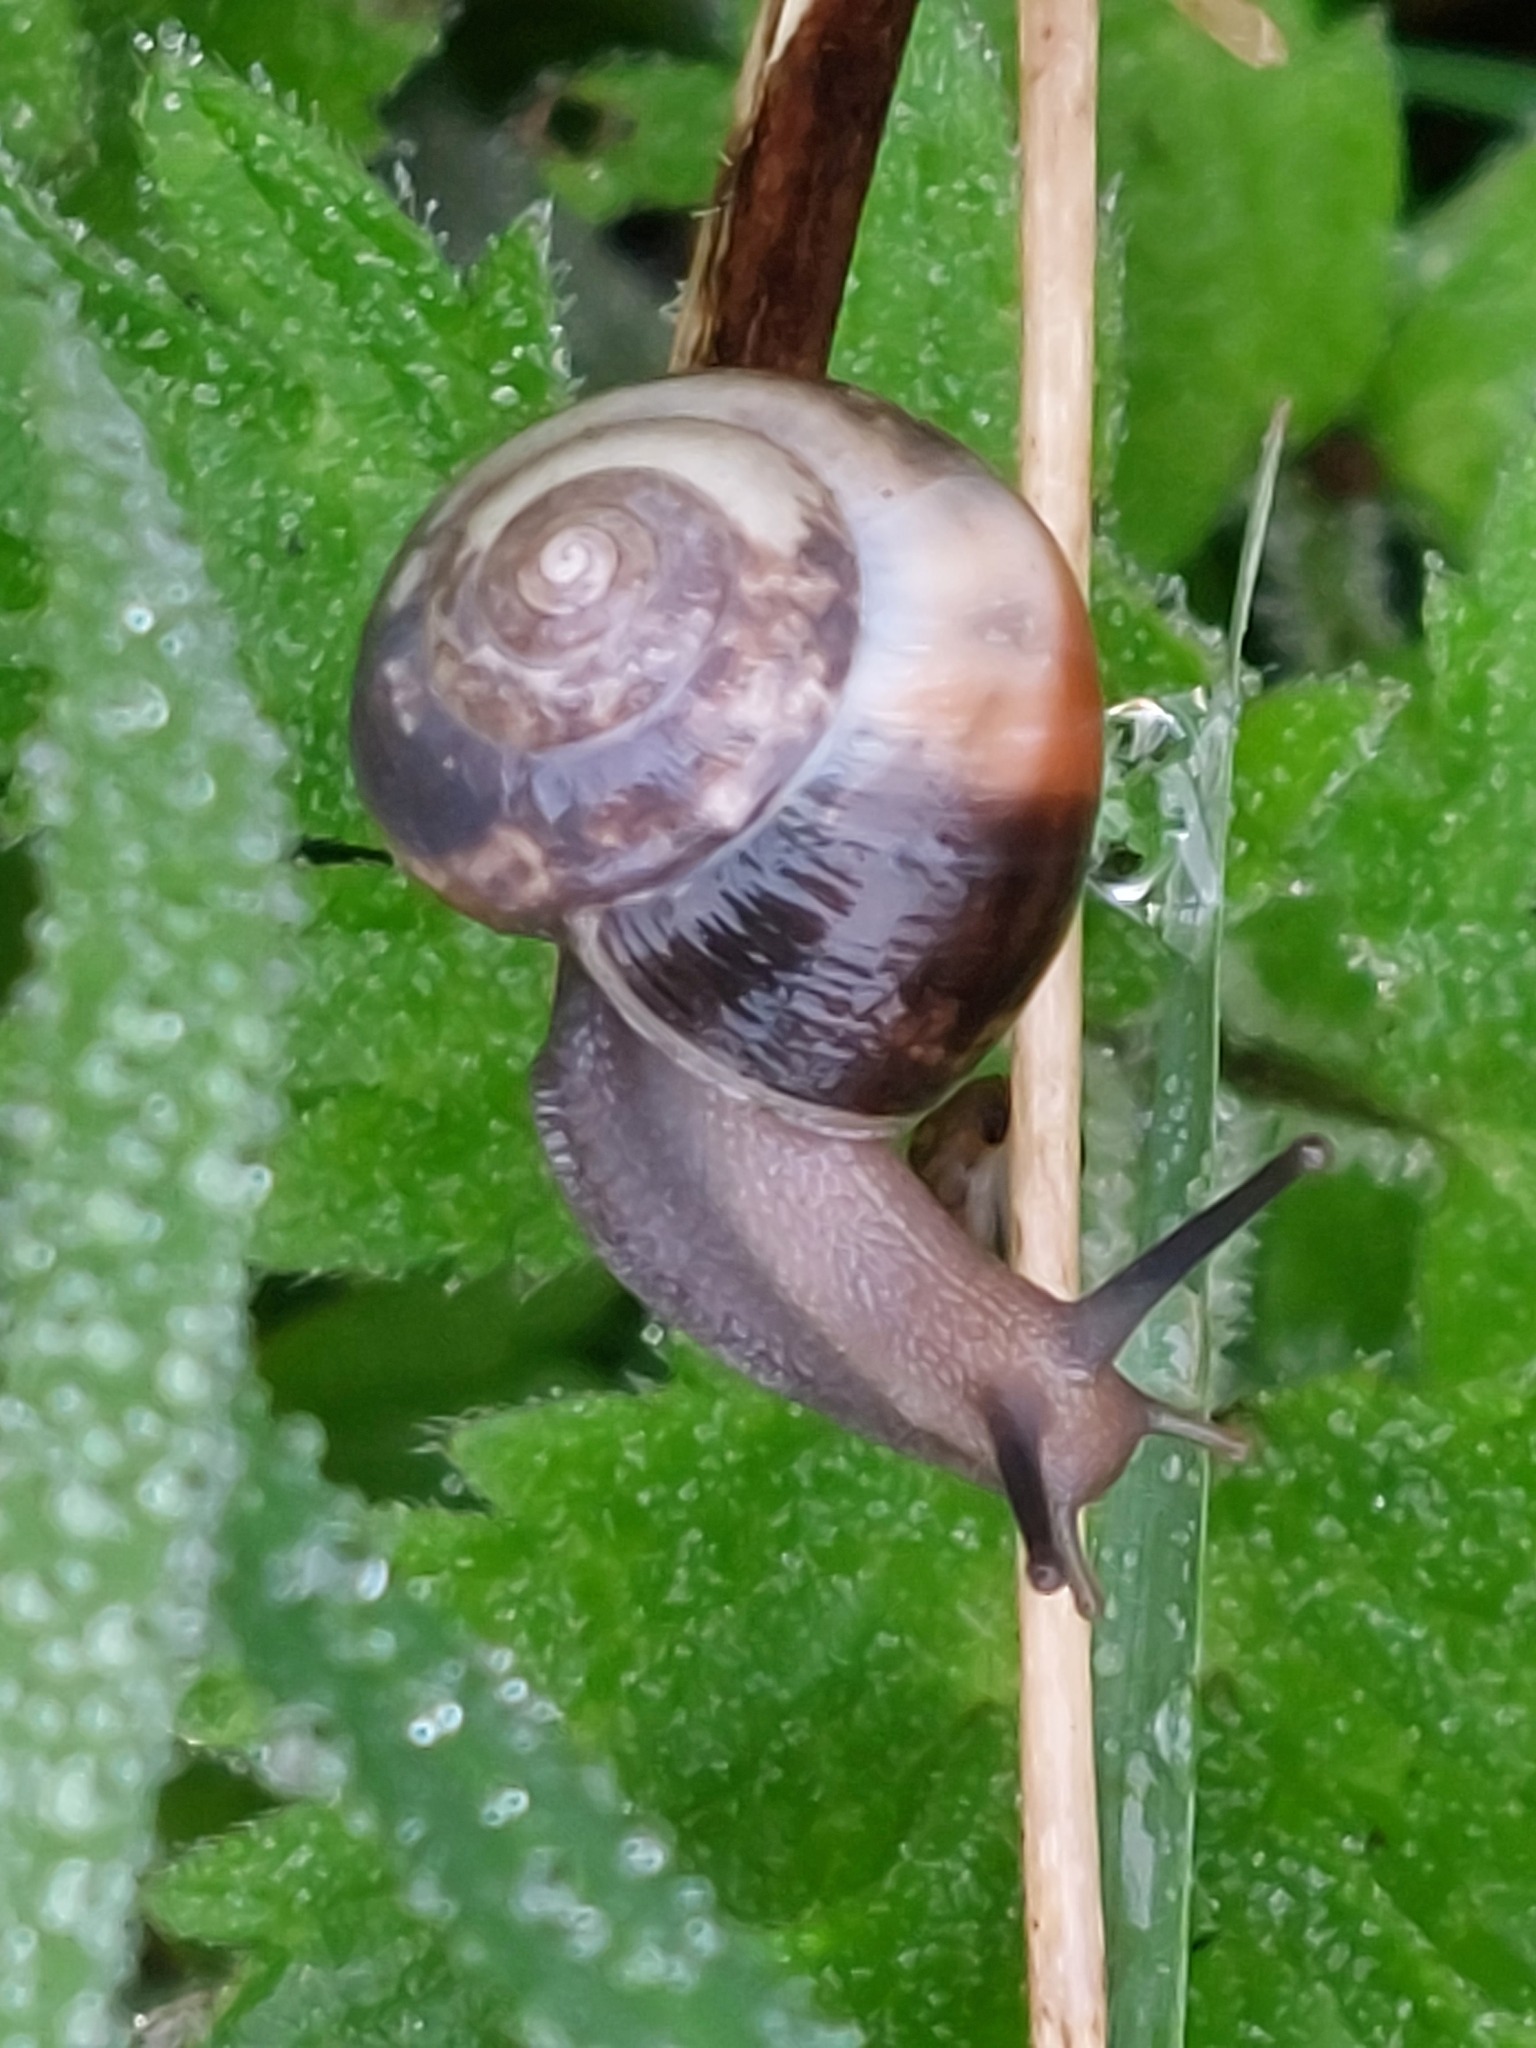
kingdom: Animalia
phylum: Mollusca
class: Gastropoda
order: Stylommatophora
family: Hygromiidae
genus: Monacha
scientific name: Monacha cantiana
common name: Kentish snail
